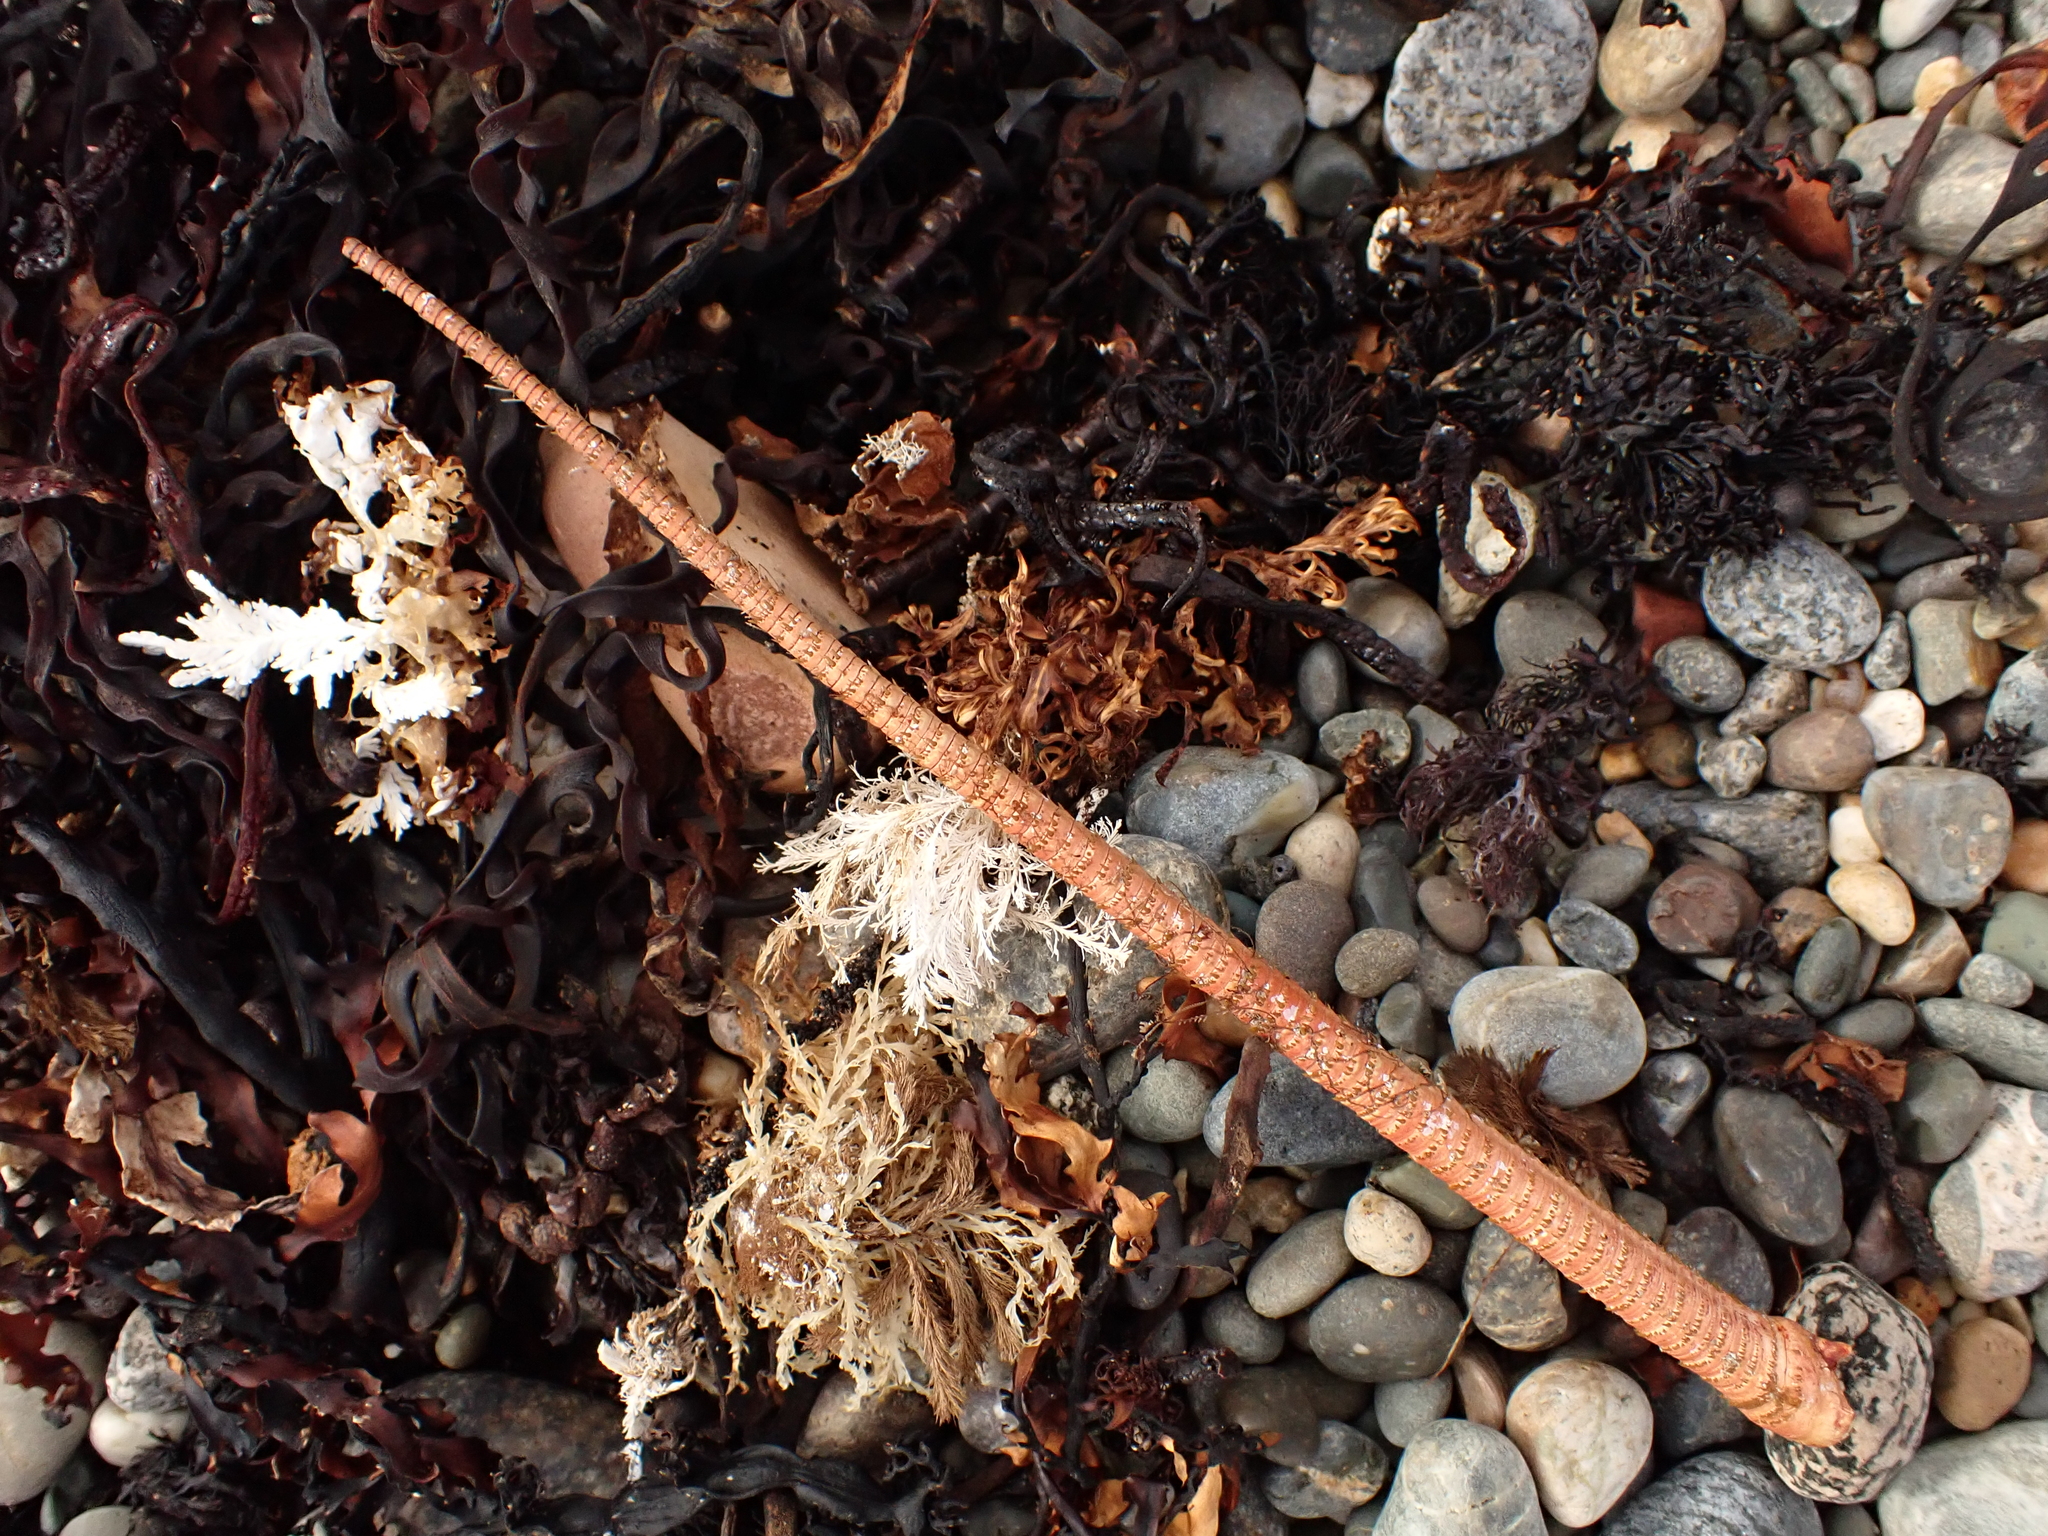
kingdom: Animalia
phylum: Arthropoda
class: Malacostraca
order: Decapoda
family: Palinuridae
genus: Jasus
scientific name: Jasus edwardsii
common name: Red rock lobster
